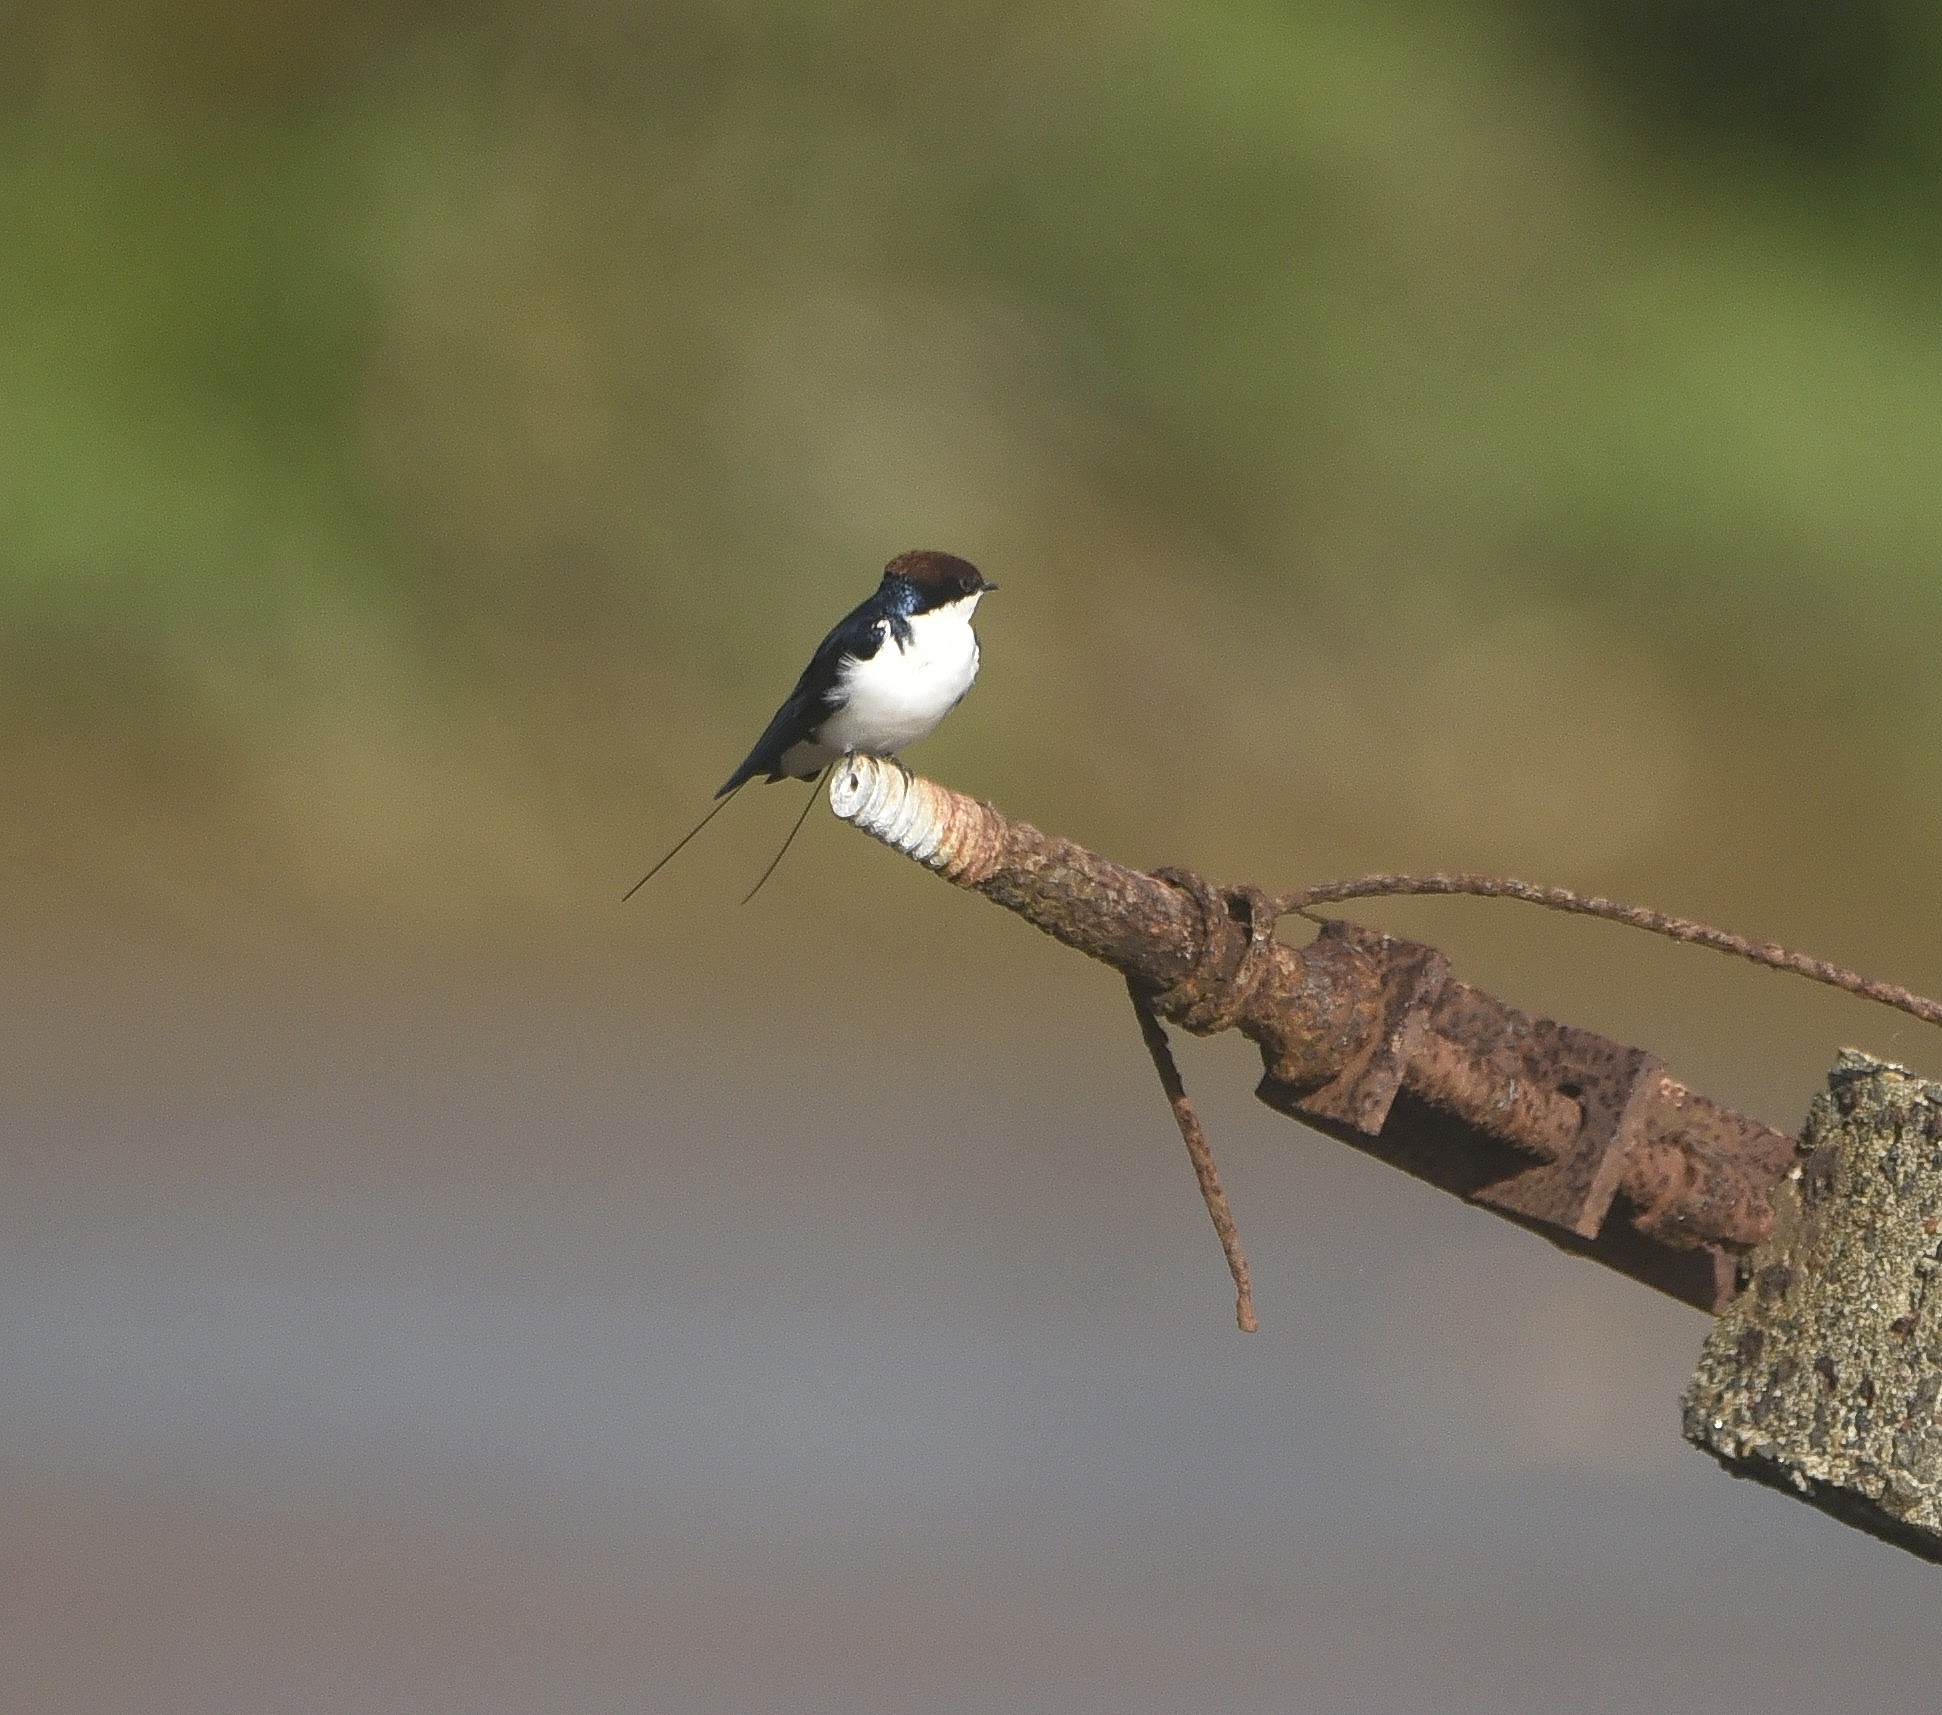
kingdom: Animalia
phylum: Chordata
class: Aves
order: Passeriformes
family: Hirundinidae
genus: Hirundo
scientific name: Hirundo smithii
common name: Wire-tailed swallow
